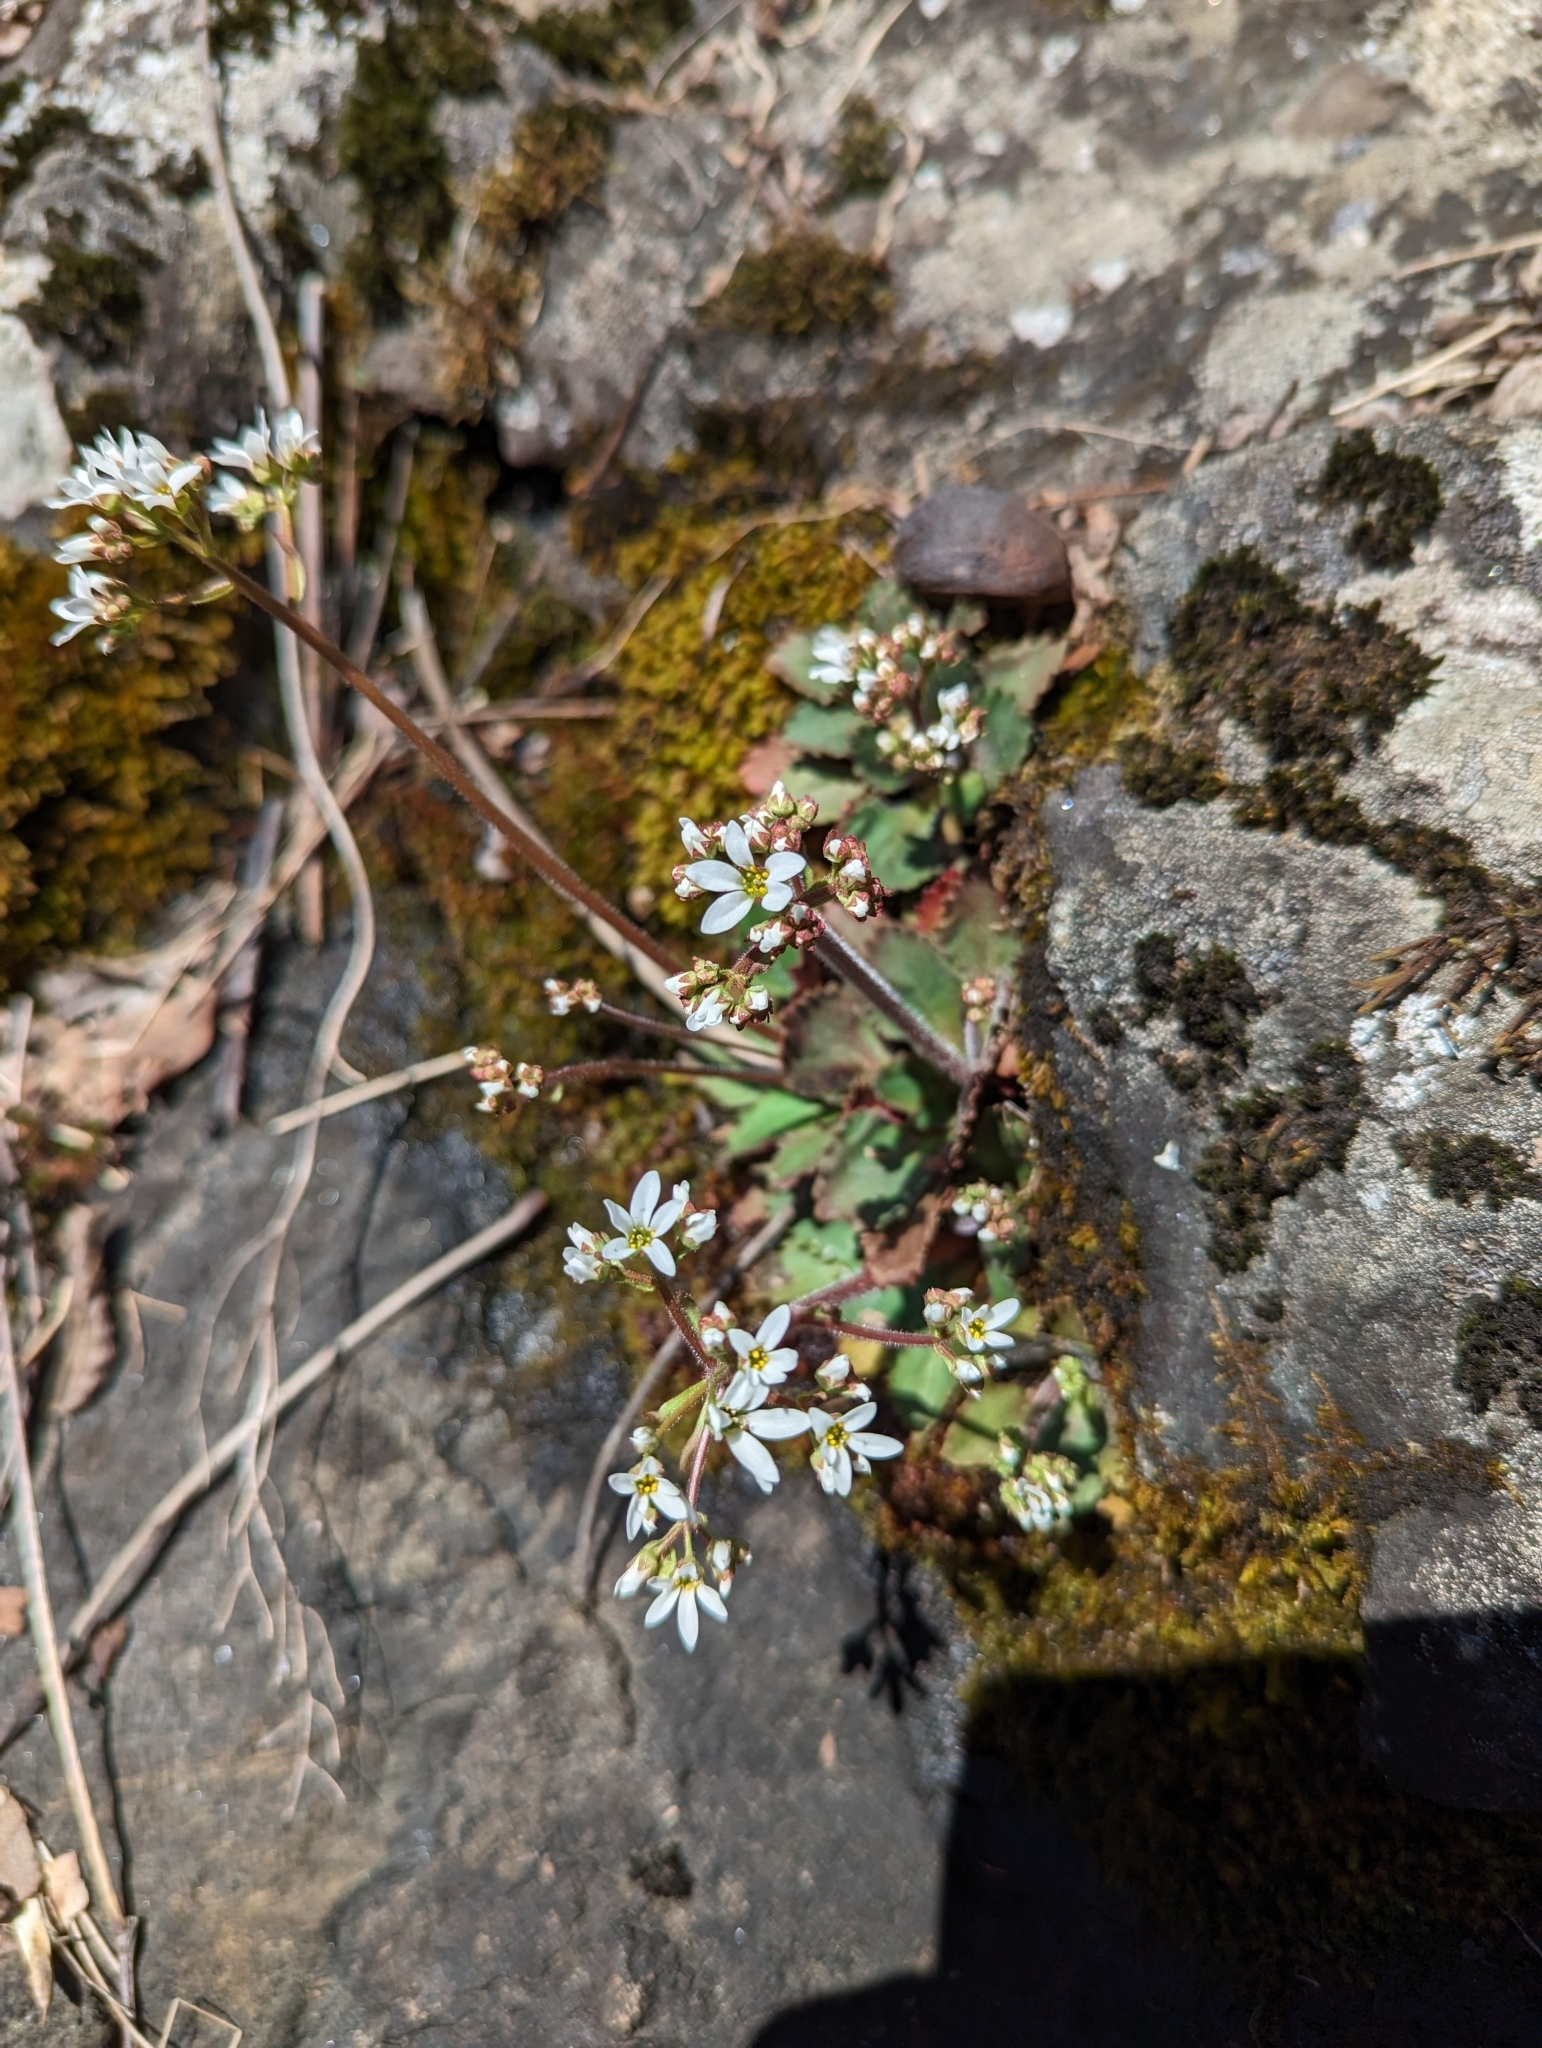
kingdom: Plantae
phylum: Tracheophyta
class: Magnoliopsida
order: Saxifragales
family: Saxifragaceae
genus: Micranthes
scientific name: Micranthes virginiensis
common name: Early saxifrage
